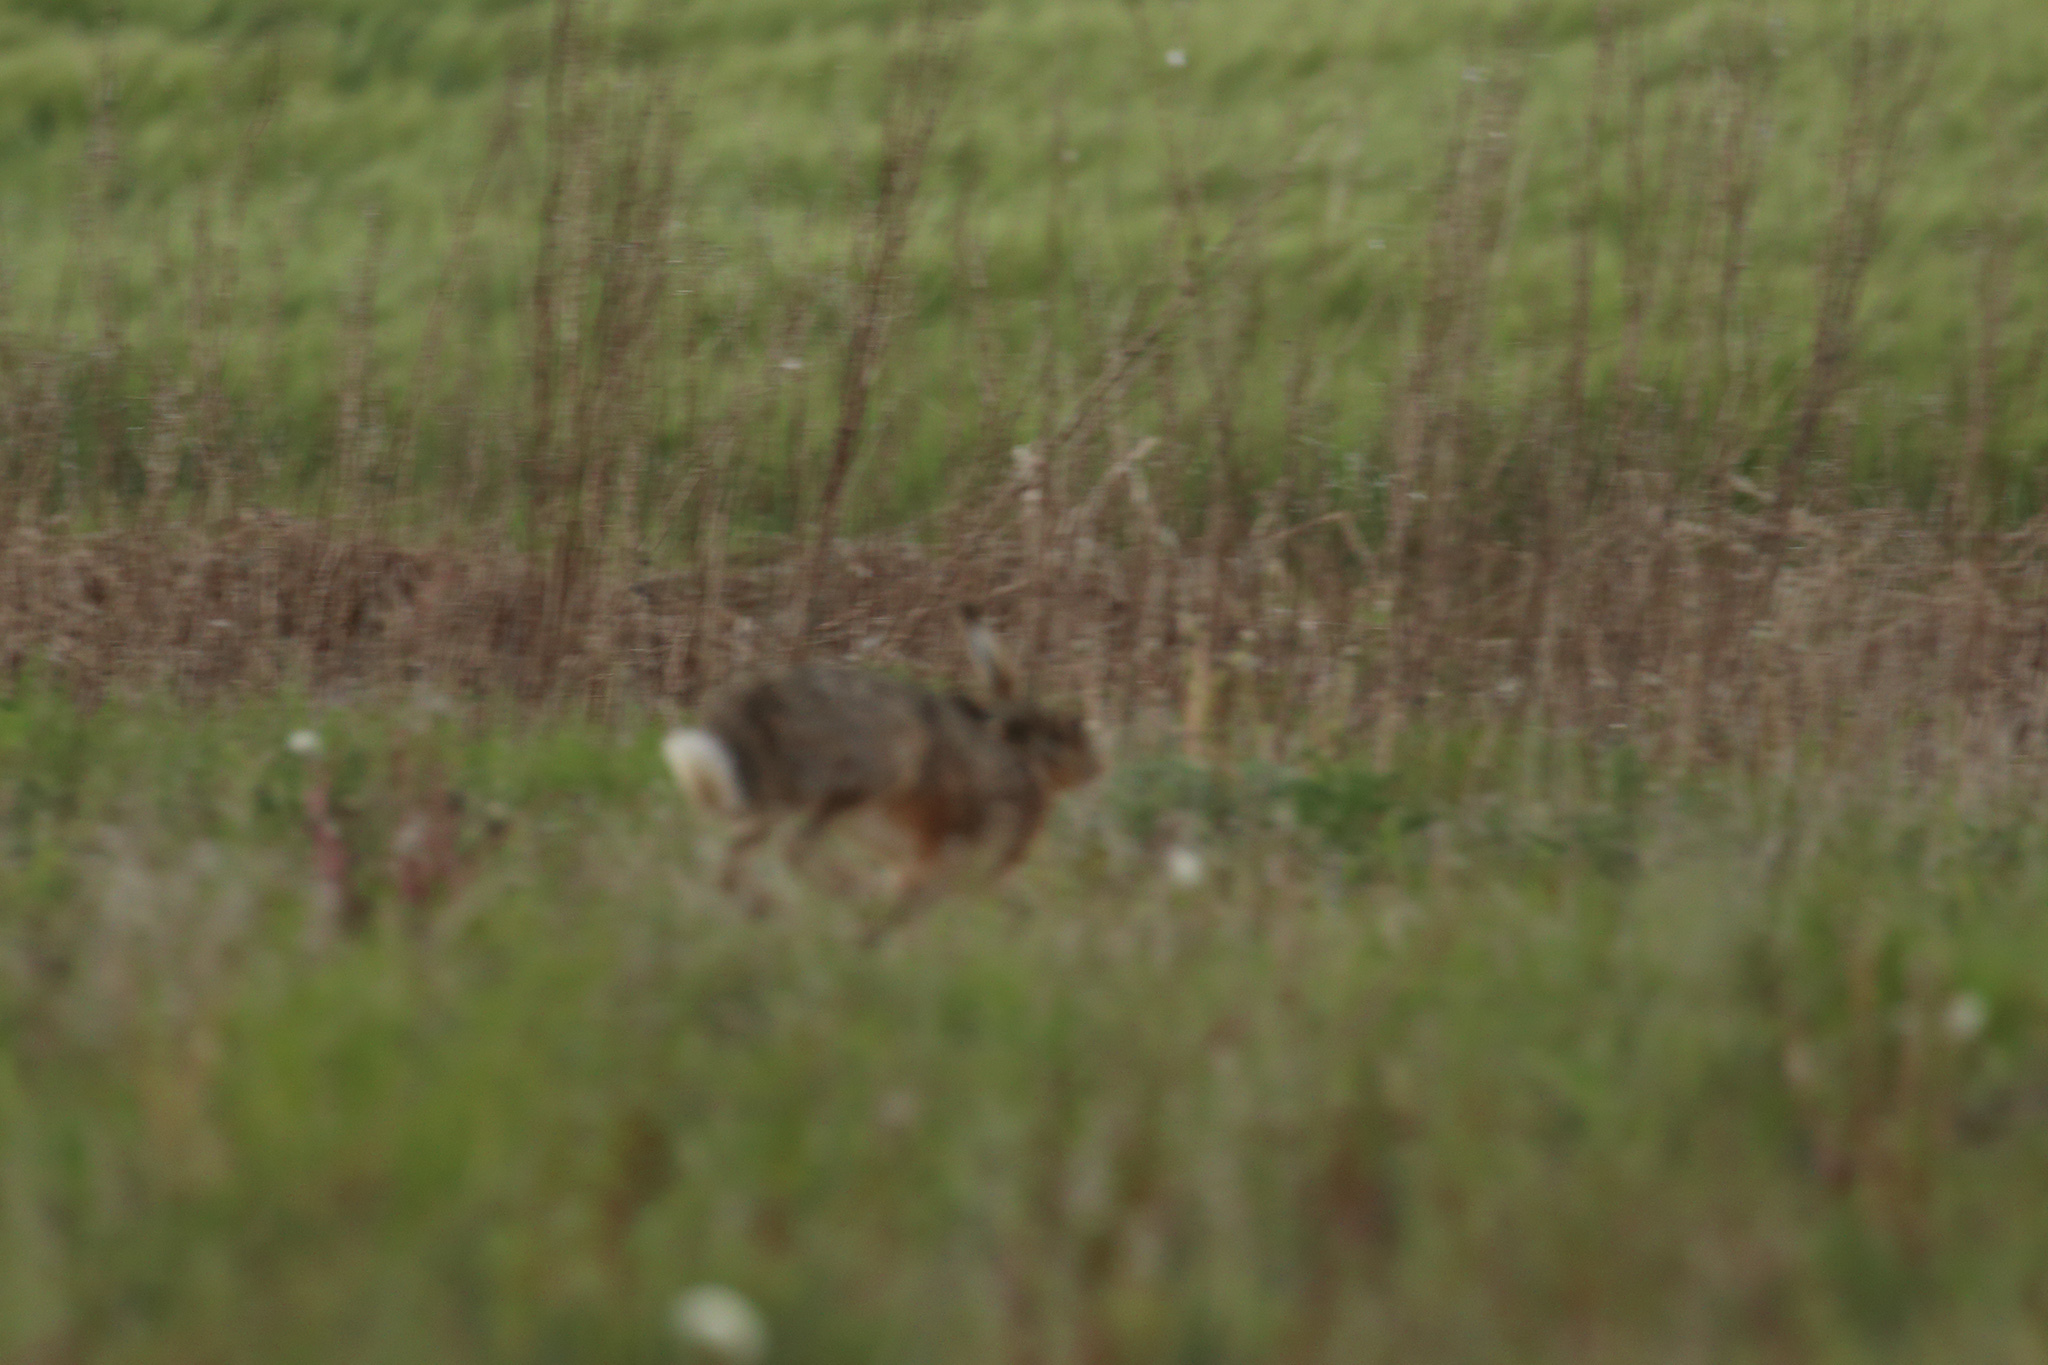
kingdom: Animalia
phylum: Chordata
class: Mammalia
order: Lagomorpha
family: Leporidae
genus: Lepus
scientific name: Lepus europaeus
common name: European hare
